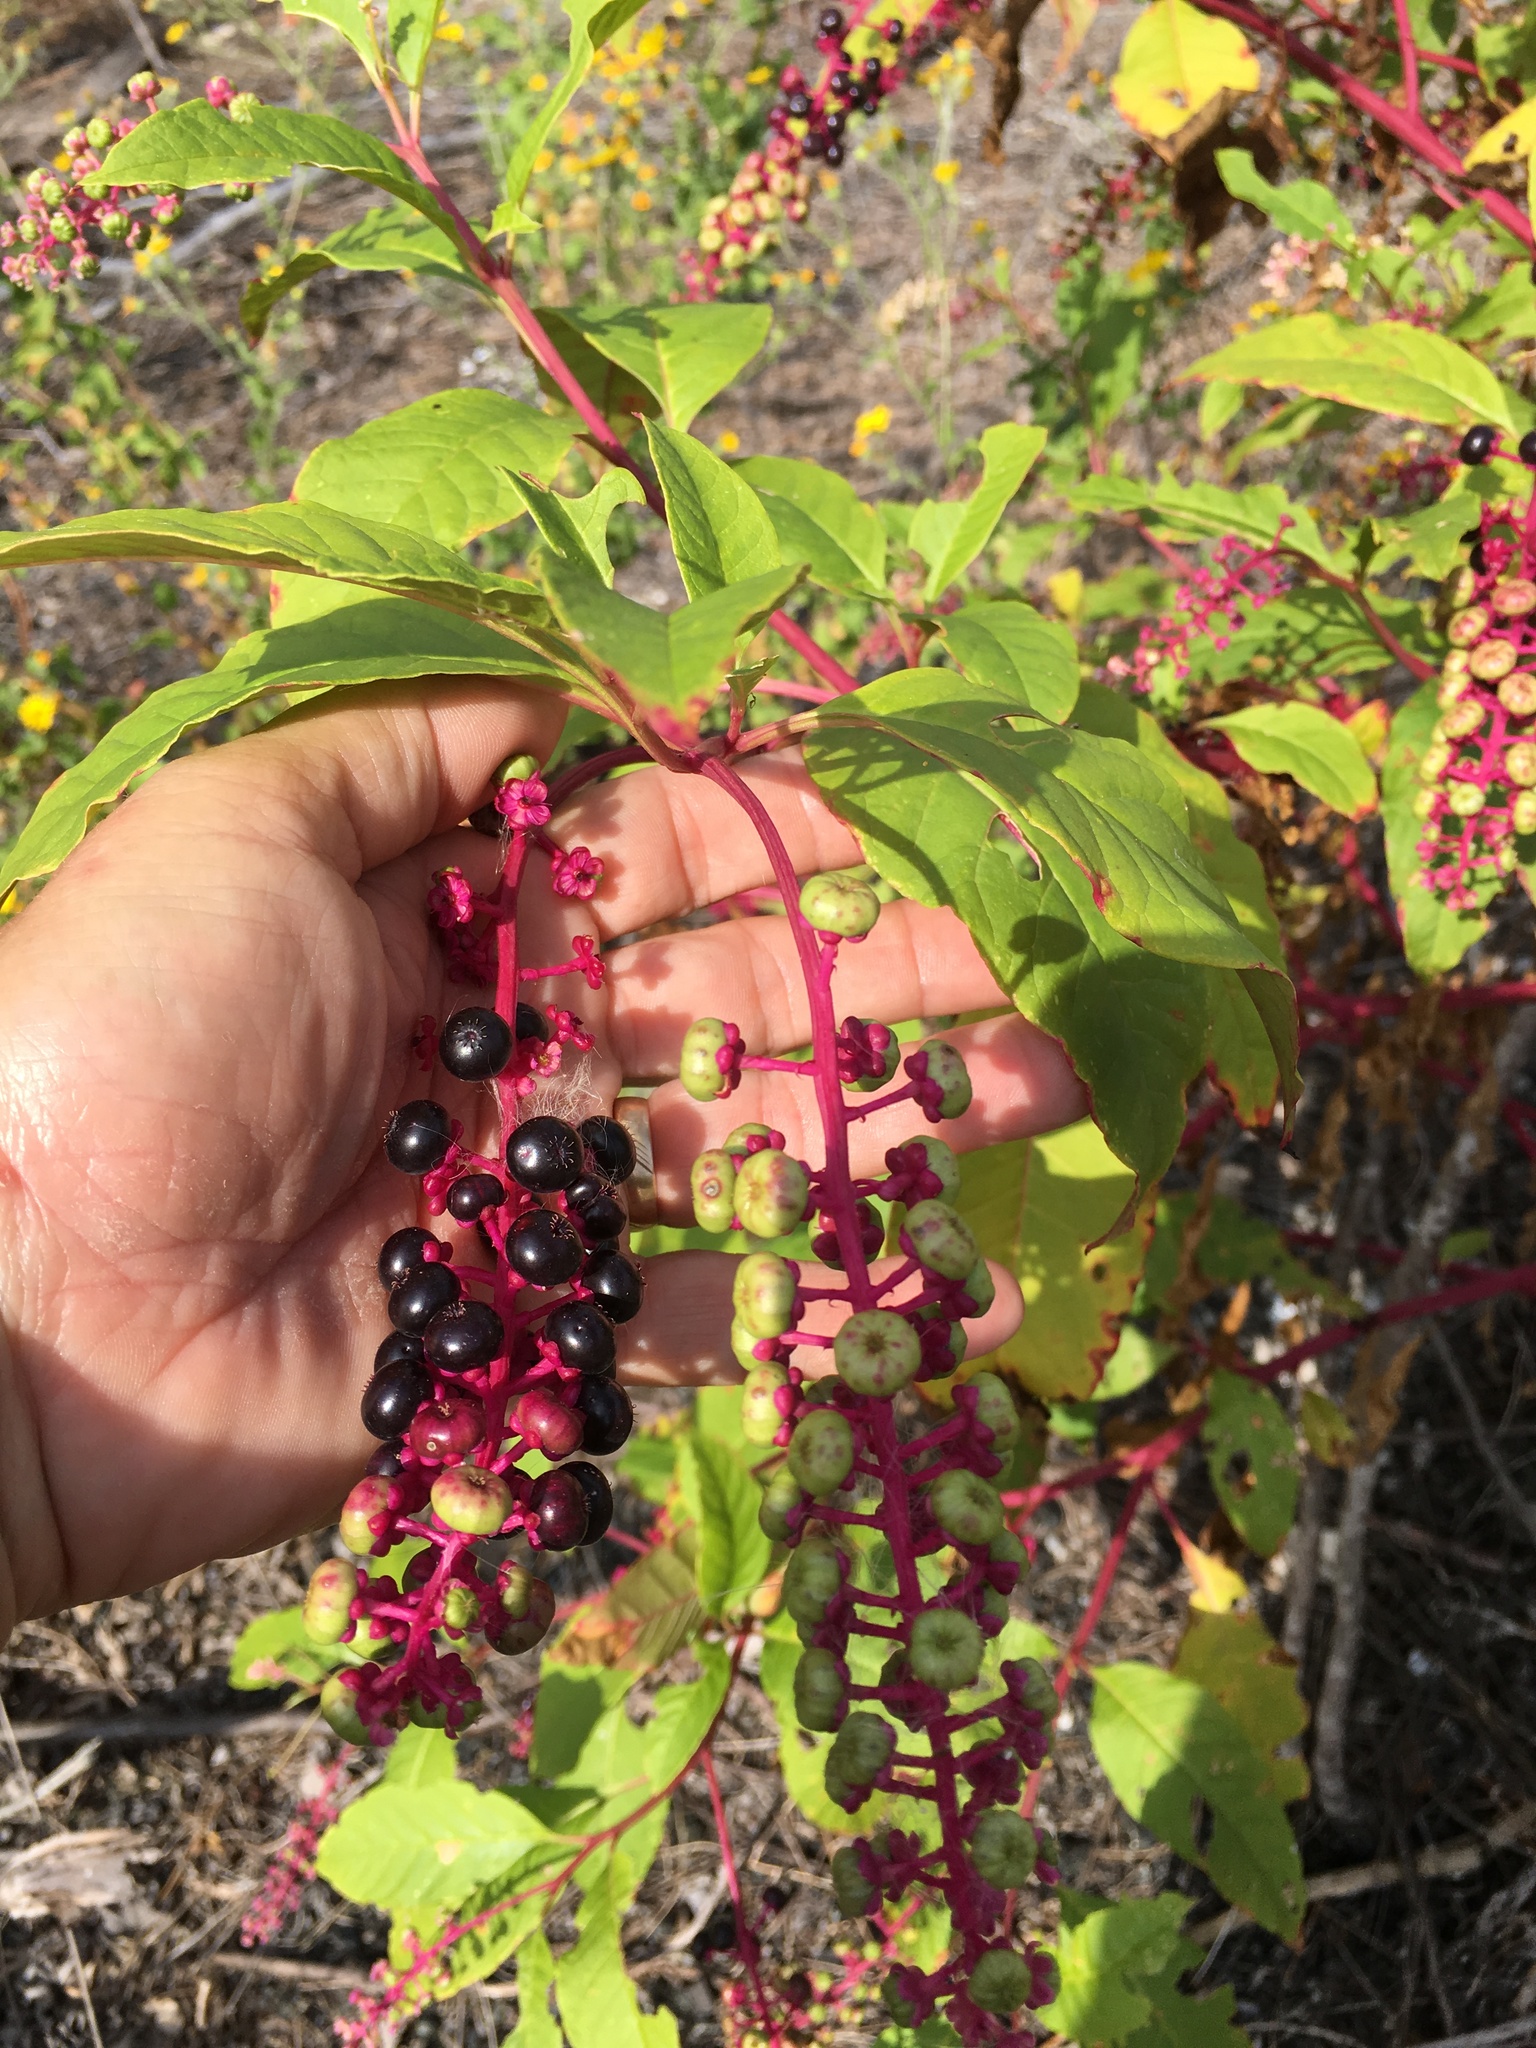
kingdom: Plantae
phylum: Tracheophyta
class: Magnoliopsida
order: Caryophyllales
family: Phytolaccaceae
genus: Phytolacca
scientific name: Phytolacca americana
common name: American pokeweed
